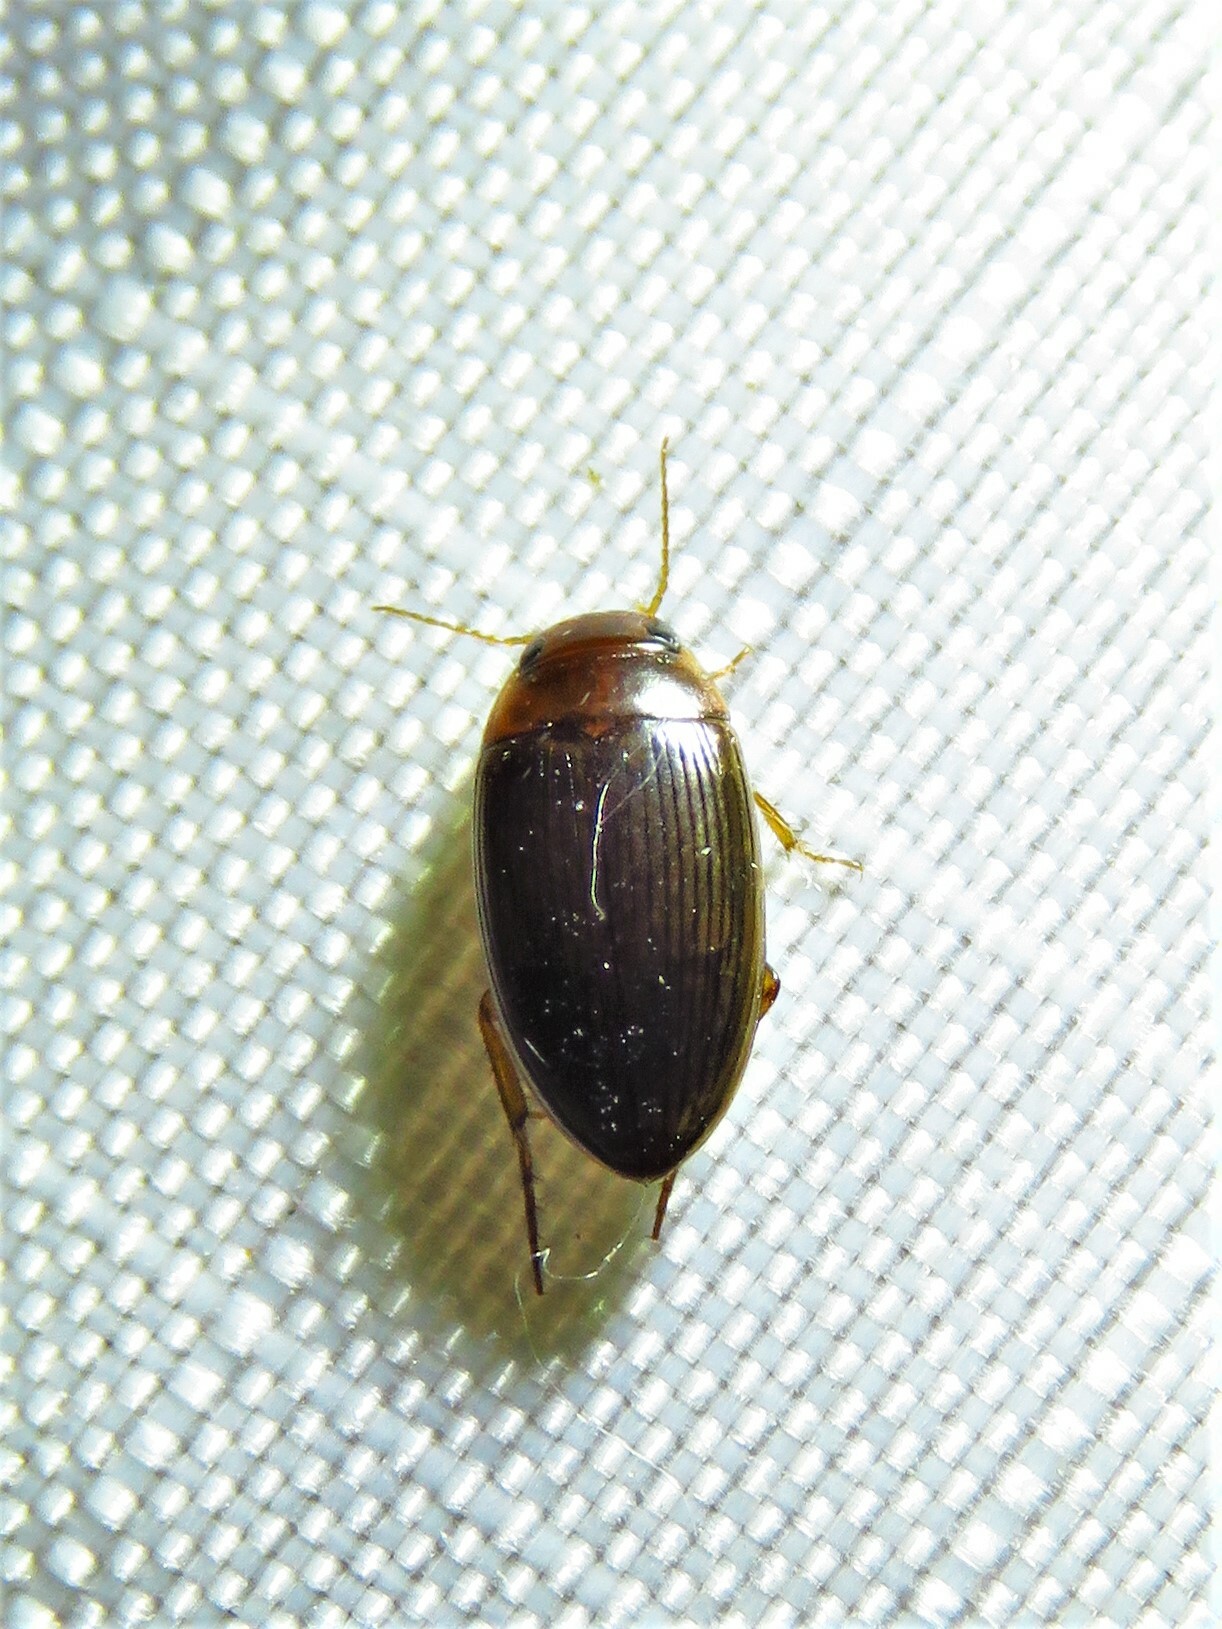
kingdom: Animalia
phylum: Arthropoda
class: Insecta
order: Coleoptera
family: Dytiscidae
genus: Copelatus
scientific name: Copelatus glyphicus
